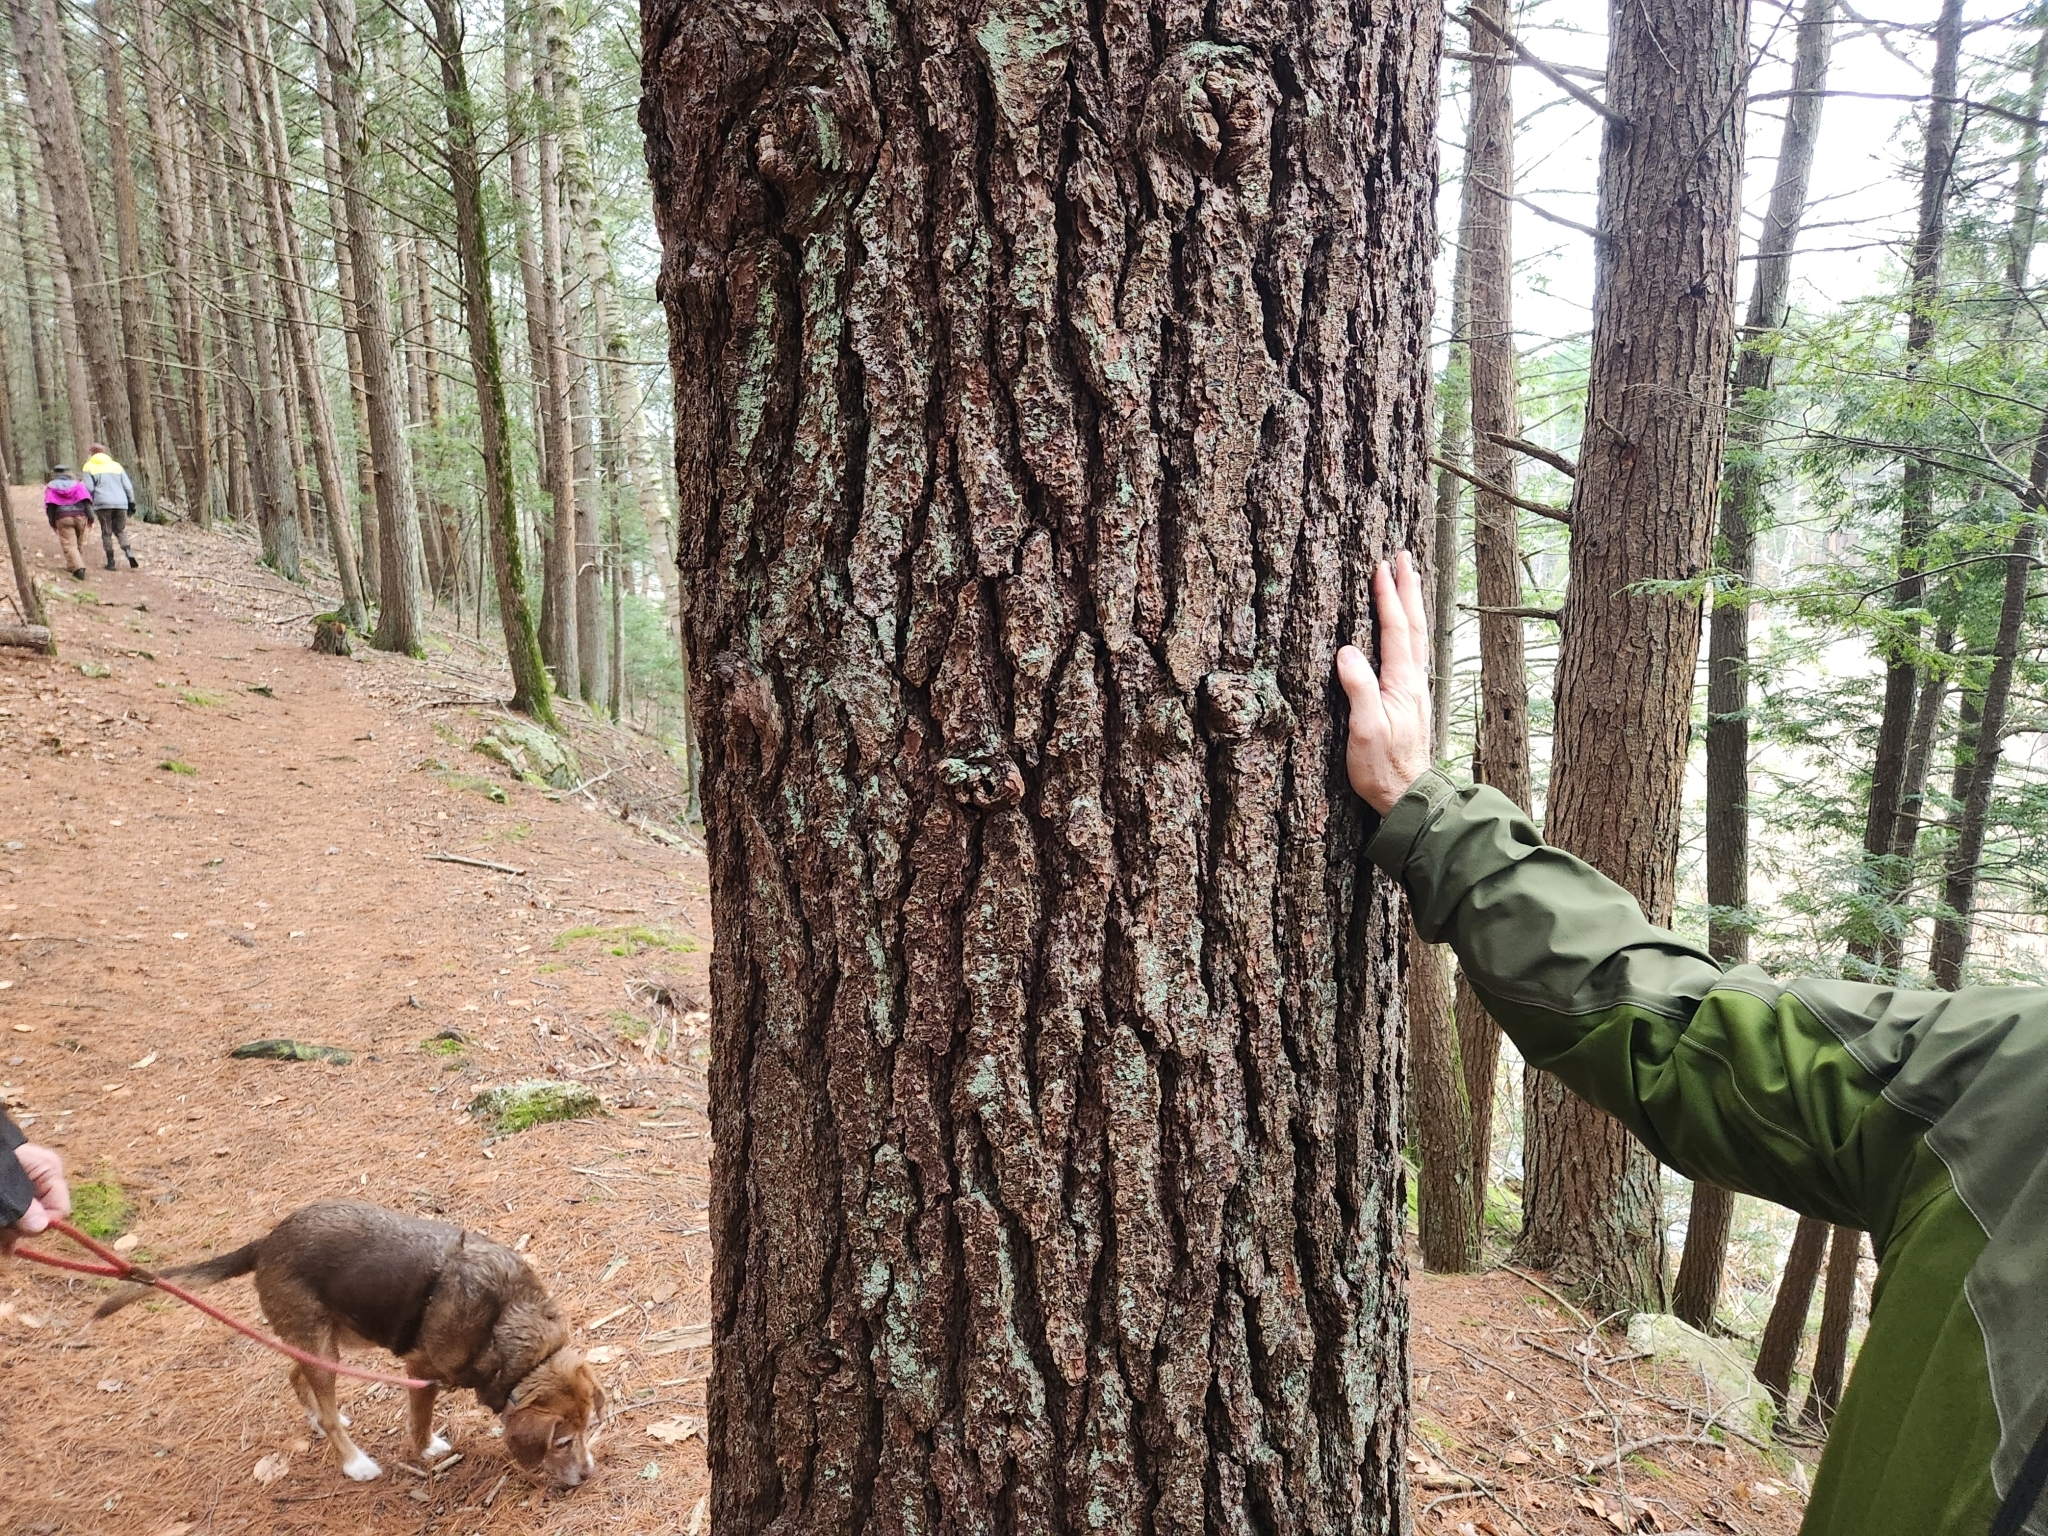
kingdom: Plantae
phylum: Tracheophyta
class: Pinopsida
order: Pinales
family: Pinaceae
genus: Pinus
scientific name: Pinus strobus
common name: Weymouth pine
